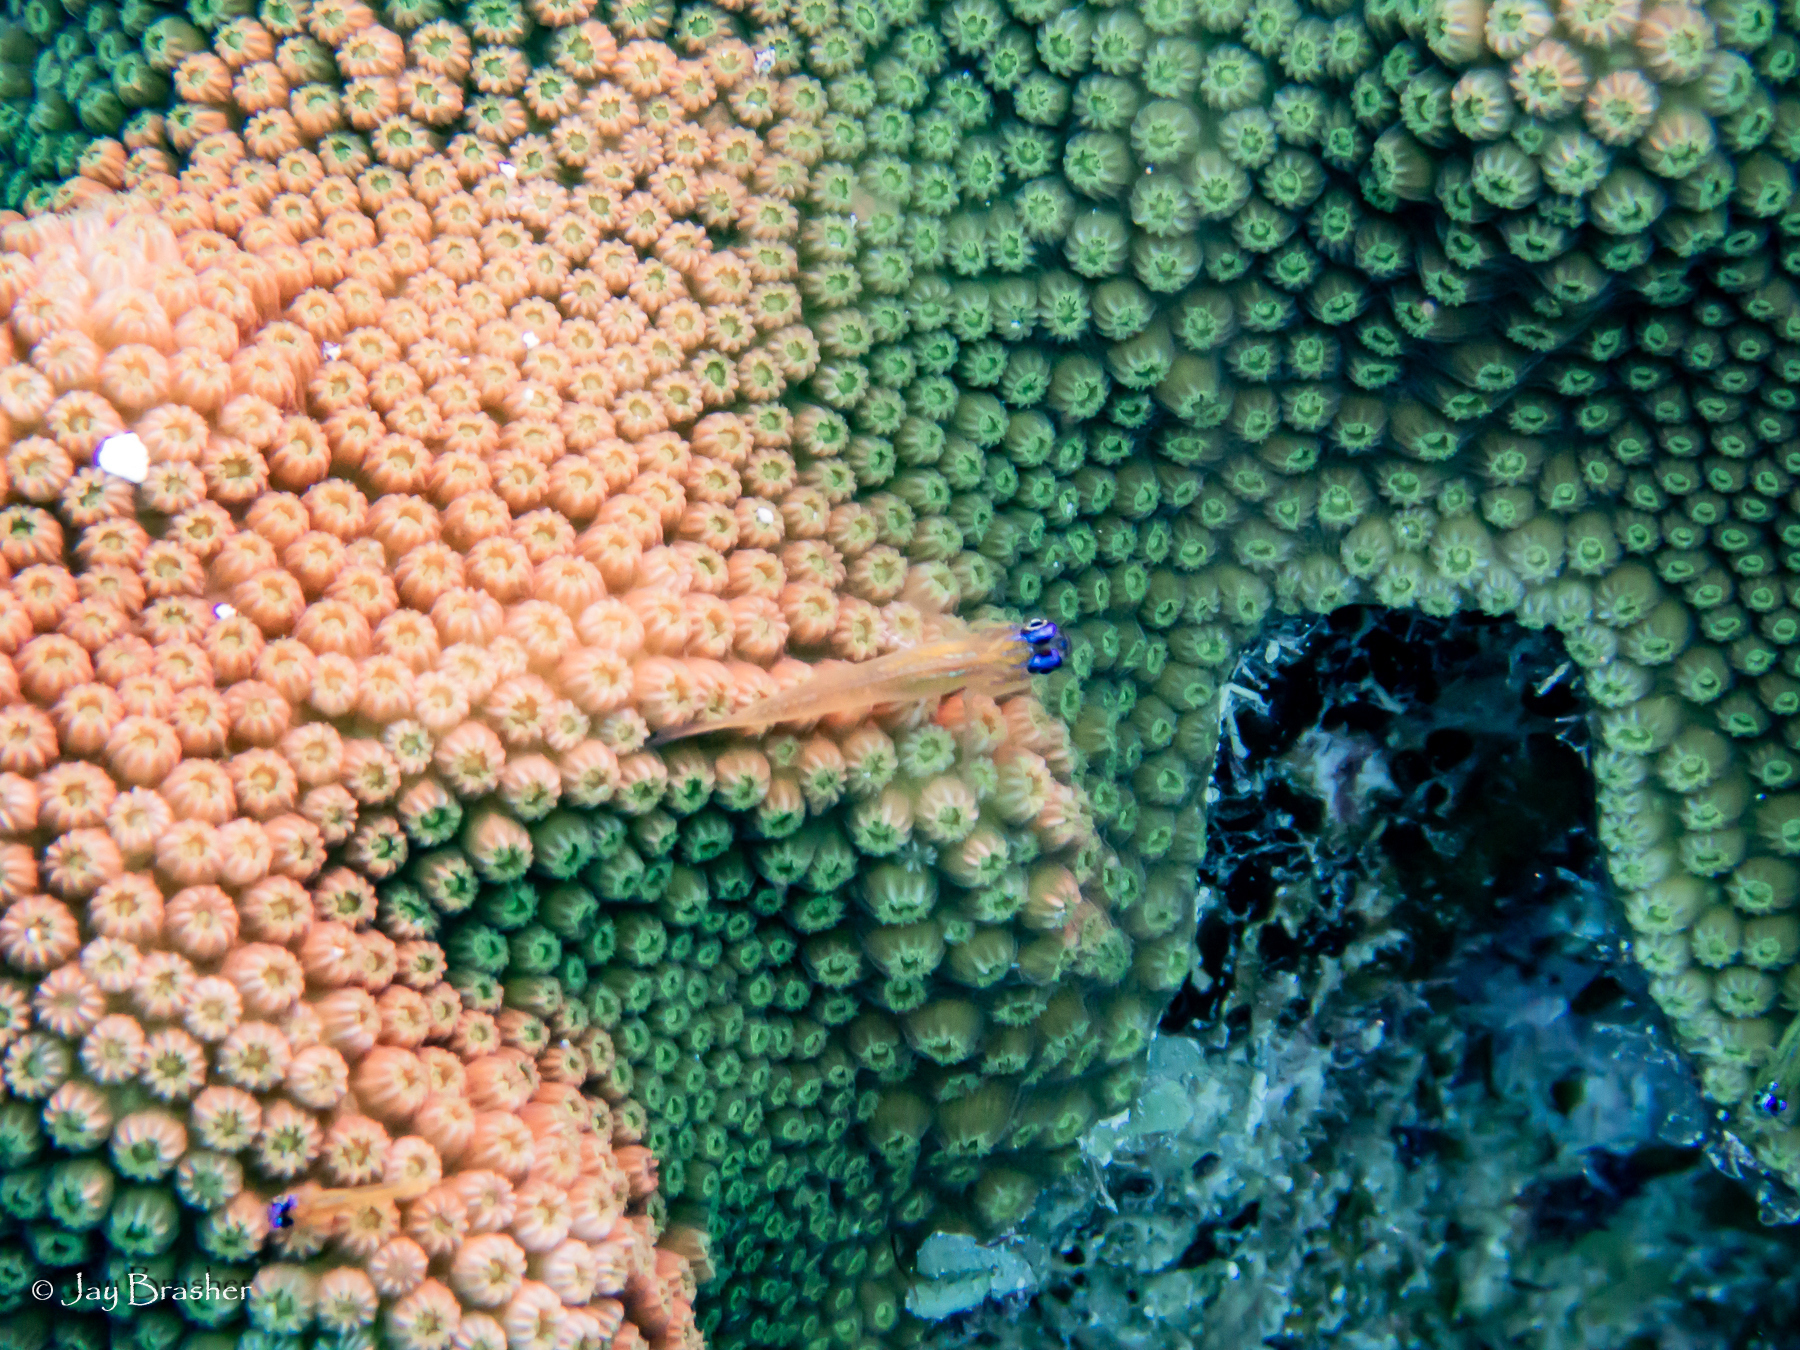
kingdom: Animalia
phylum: Chordata
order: Perciformes
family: Gobiidae
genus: Coryphopterus
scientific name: Coryphopterus lipernes
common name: Peppermint goby
